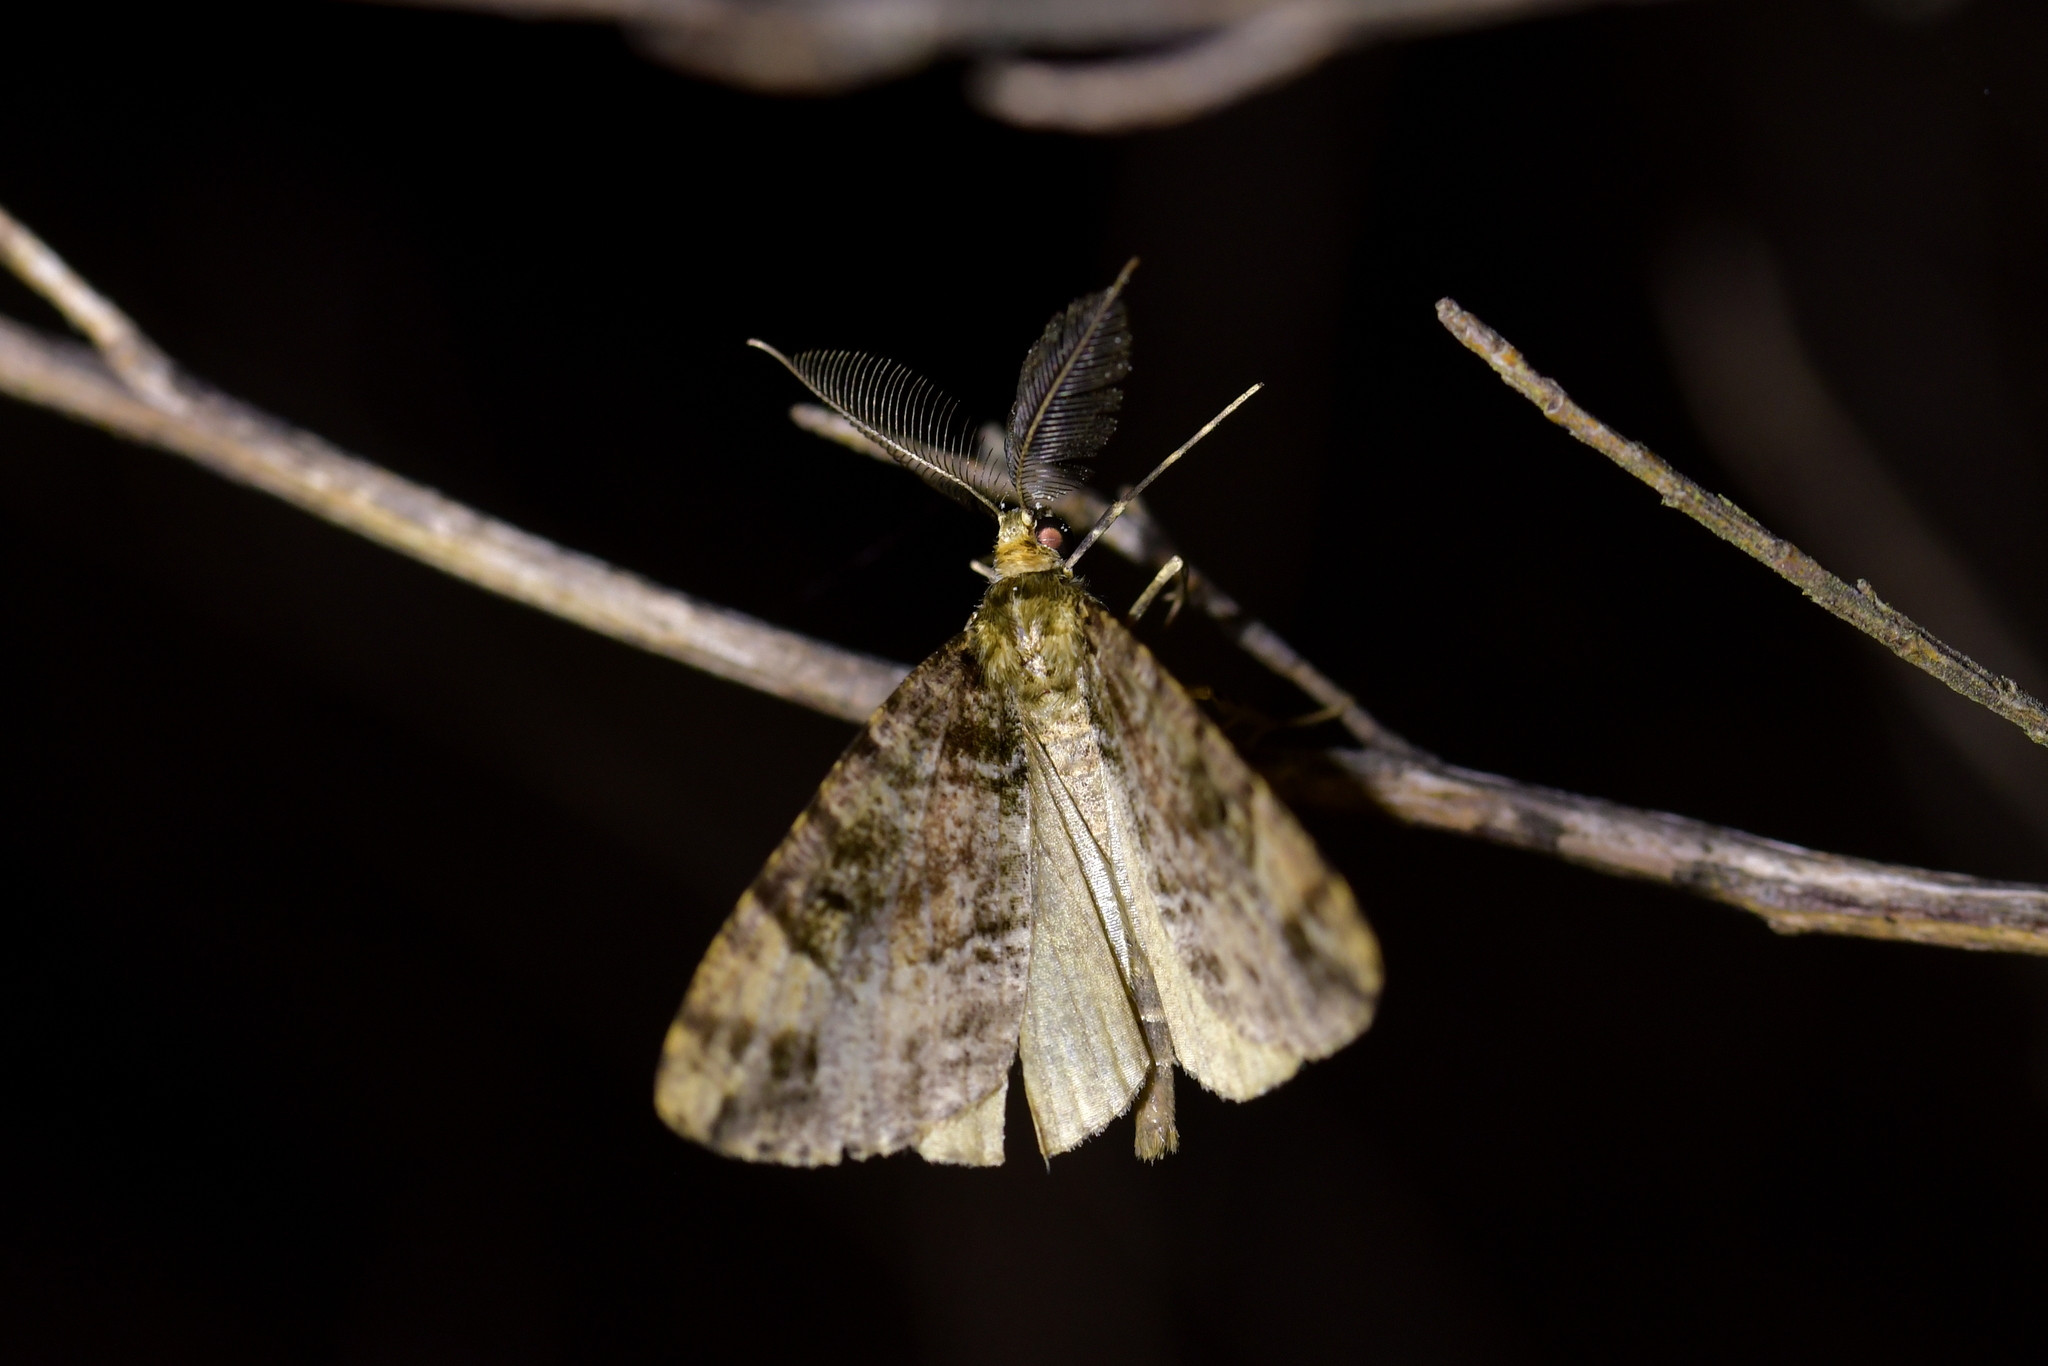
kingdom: Animalia
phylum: Arthropoda
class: Insecta
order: Lepidoptera
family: Geometridae
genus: Pseudocoremia
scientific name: Pseudocoremia productata
